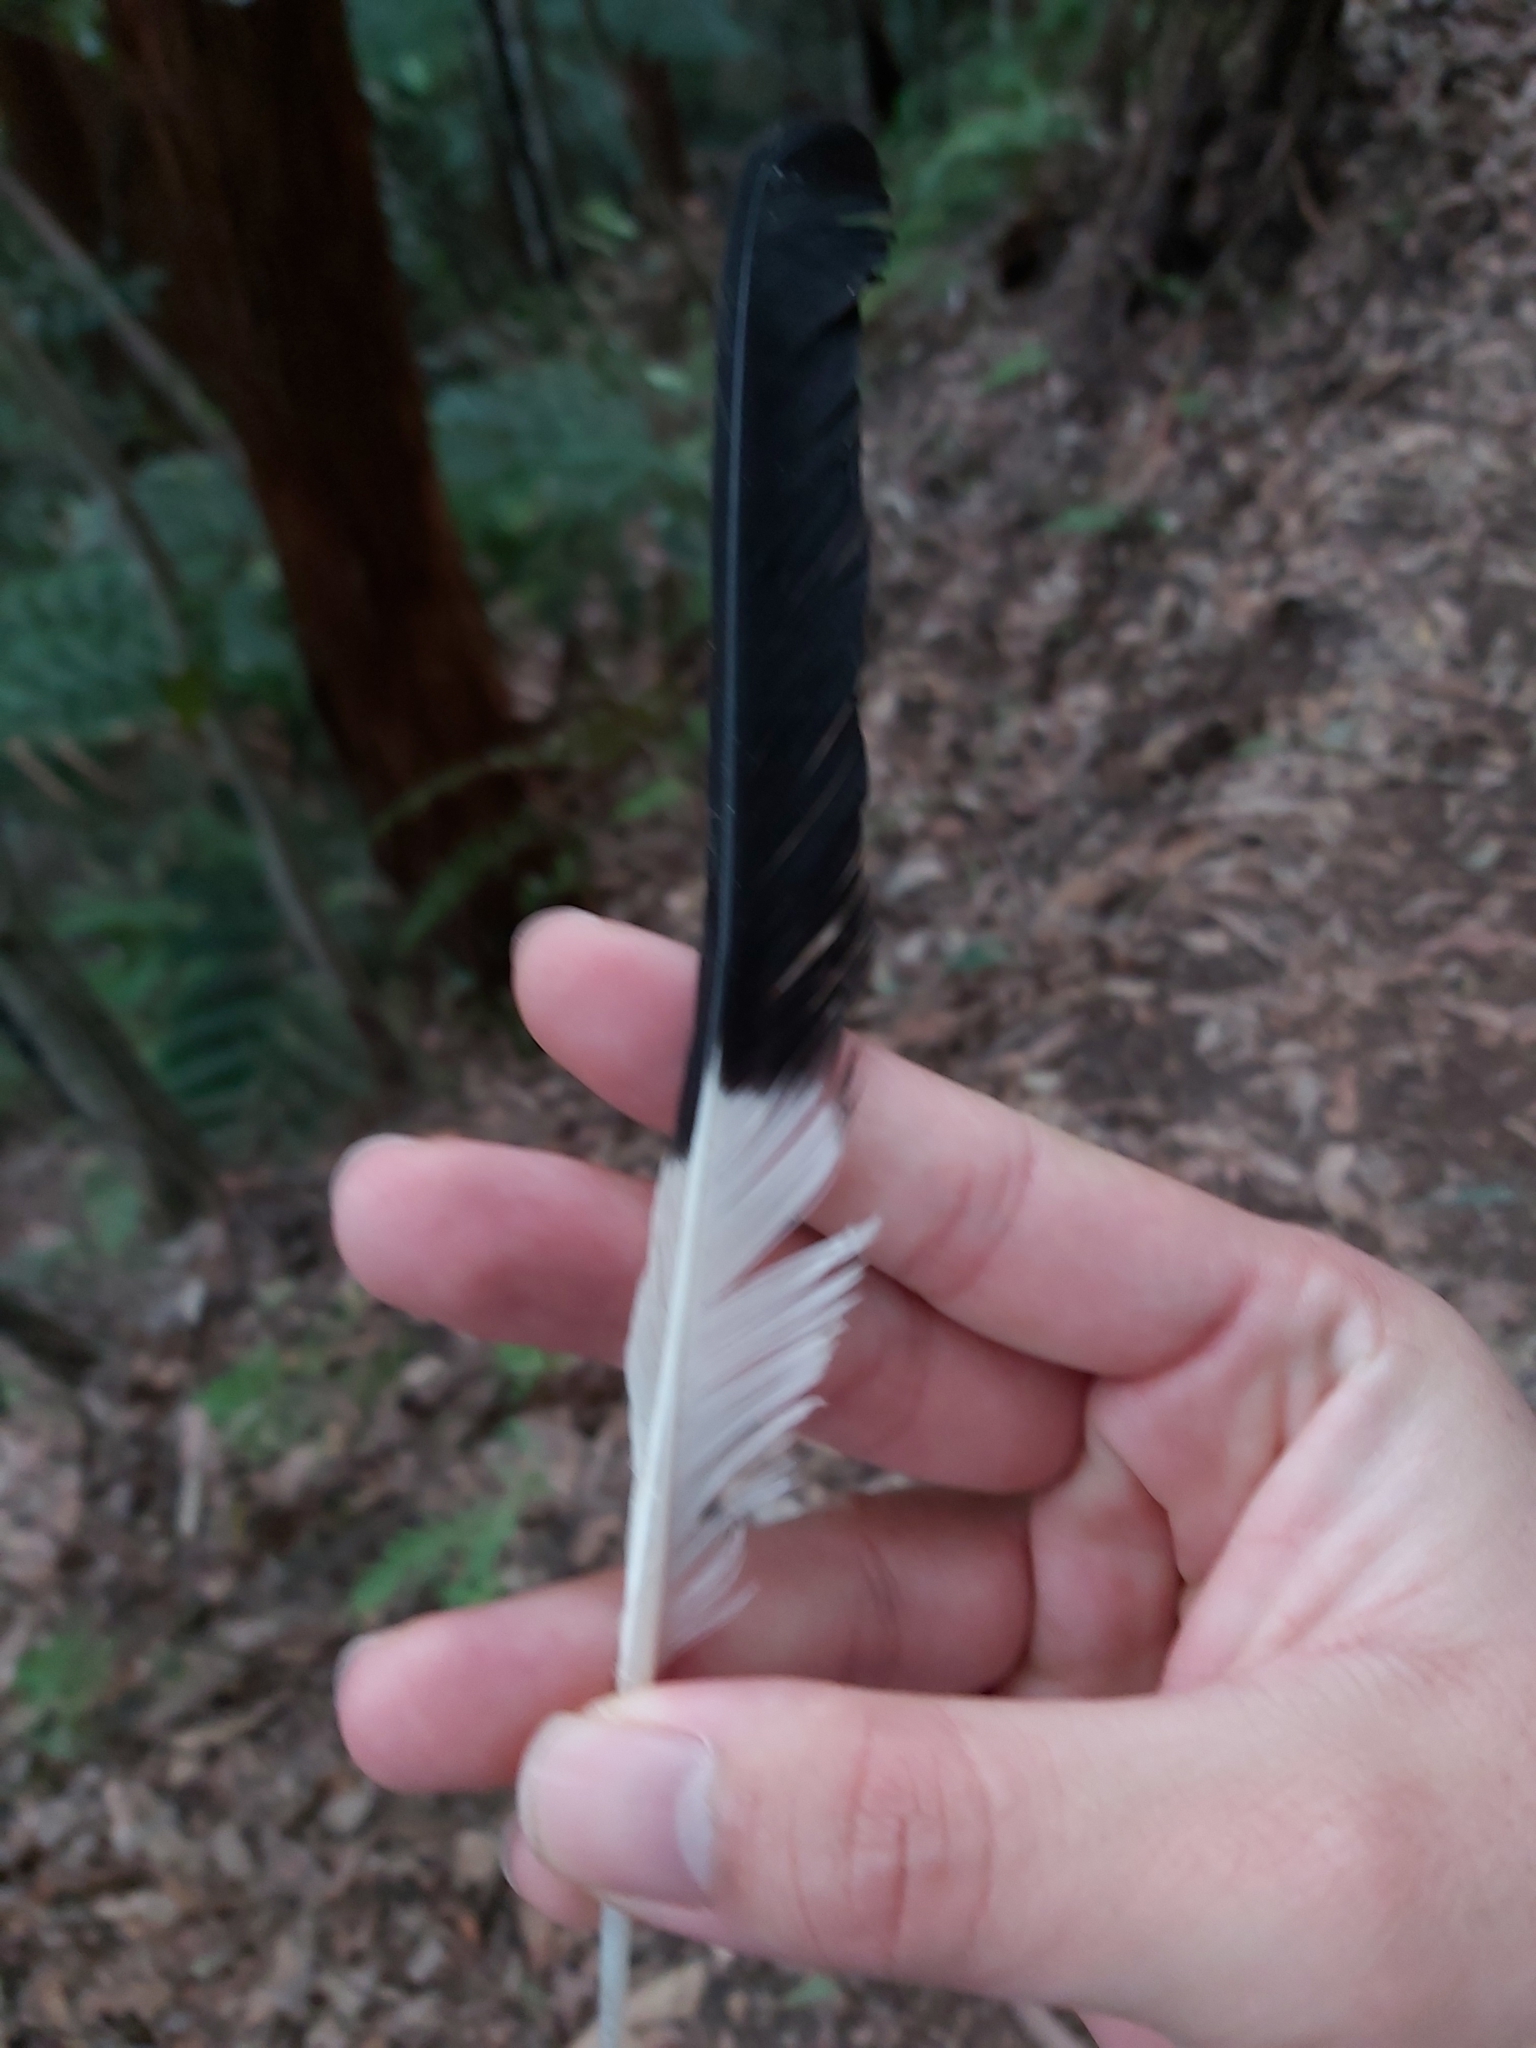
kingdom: Animalia
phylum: Chordata
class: Aves
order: Passeriformes
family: Cracticidae
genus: Strepera
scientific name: Strepera graculina
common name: Pied currawong
